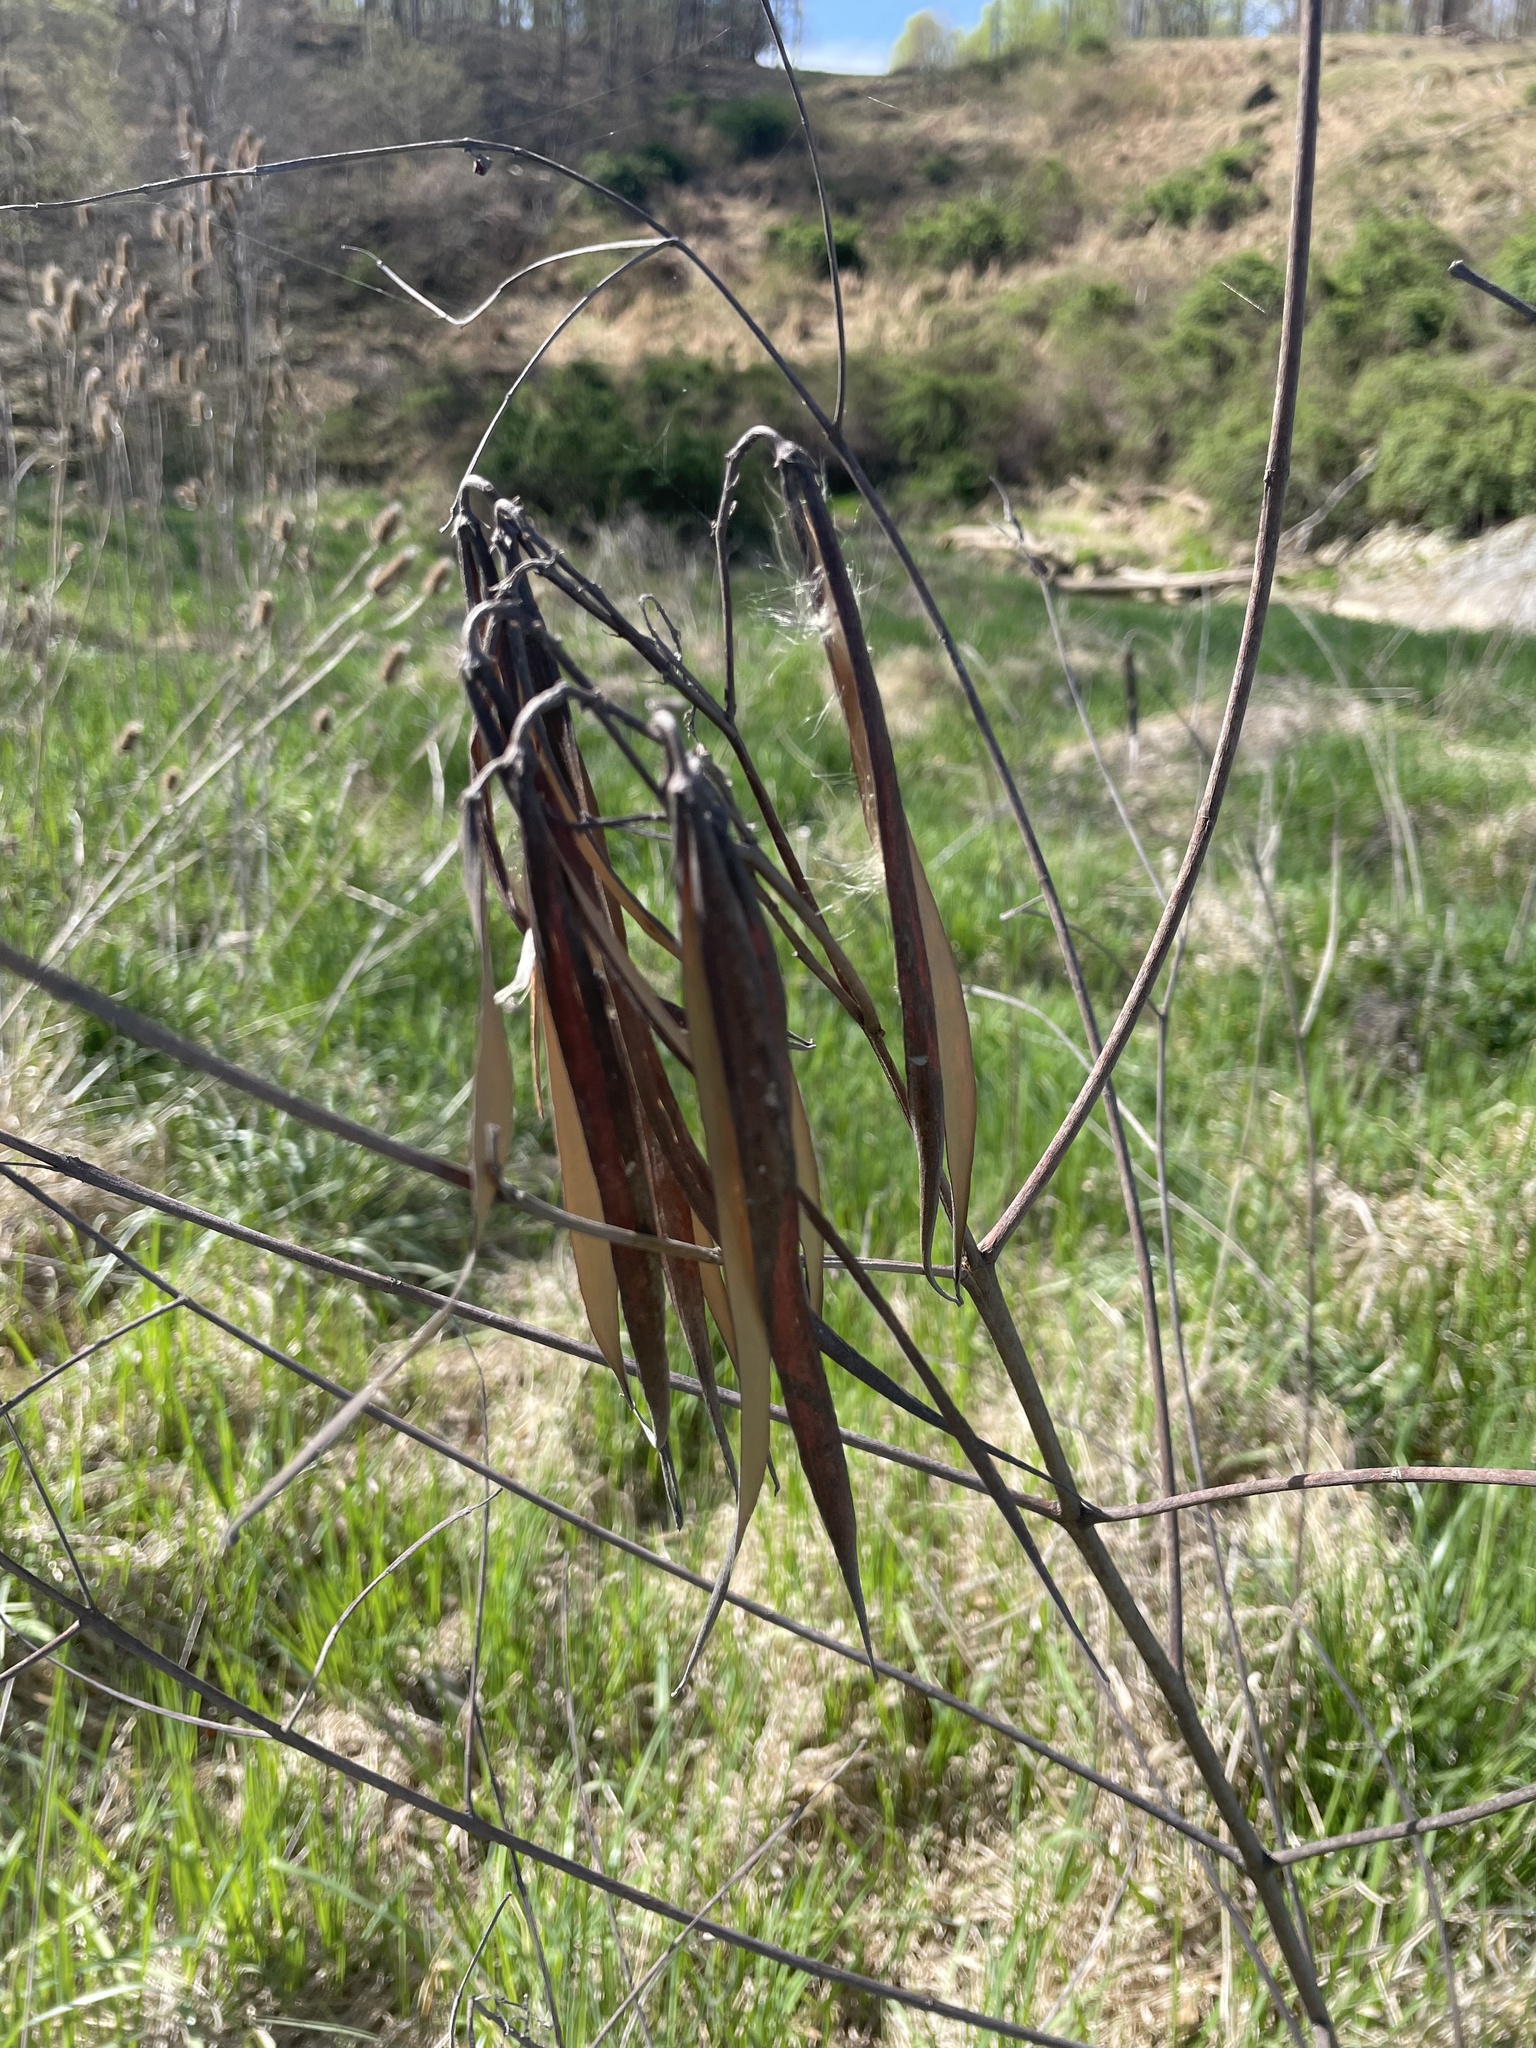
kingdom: Plantae
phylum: Tracheophyta
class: Magnoliopsida
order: Gentianales
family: Apocynaceae
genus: Apocynum
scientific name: Apocynum cannabinum
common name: Hemp dogbane
